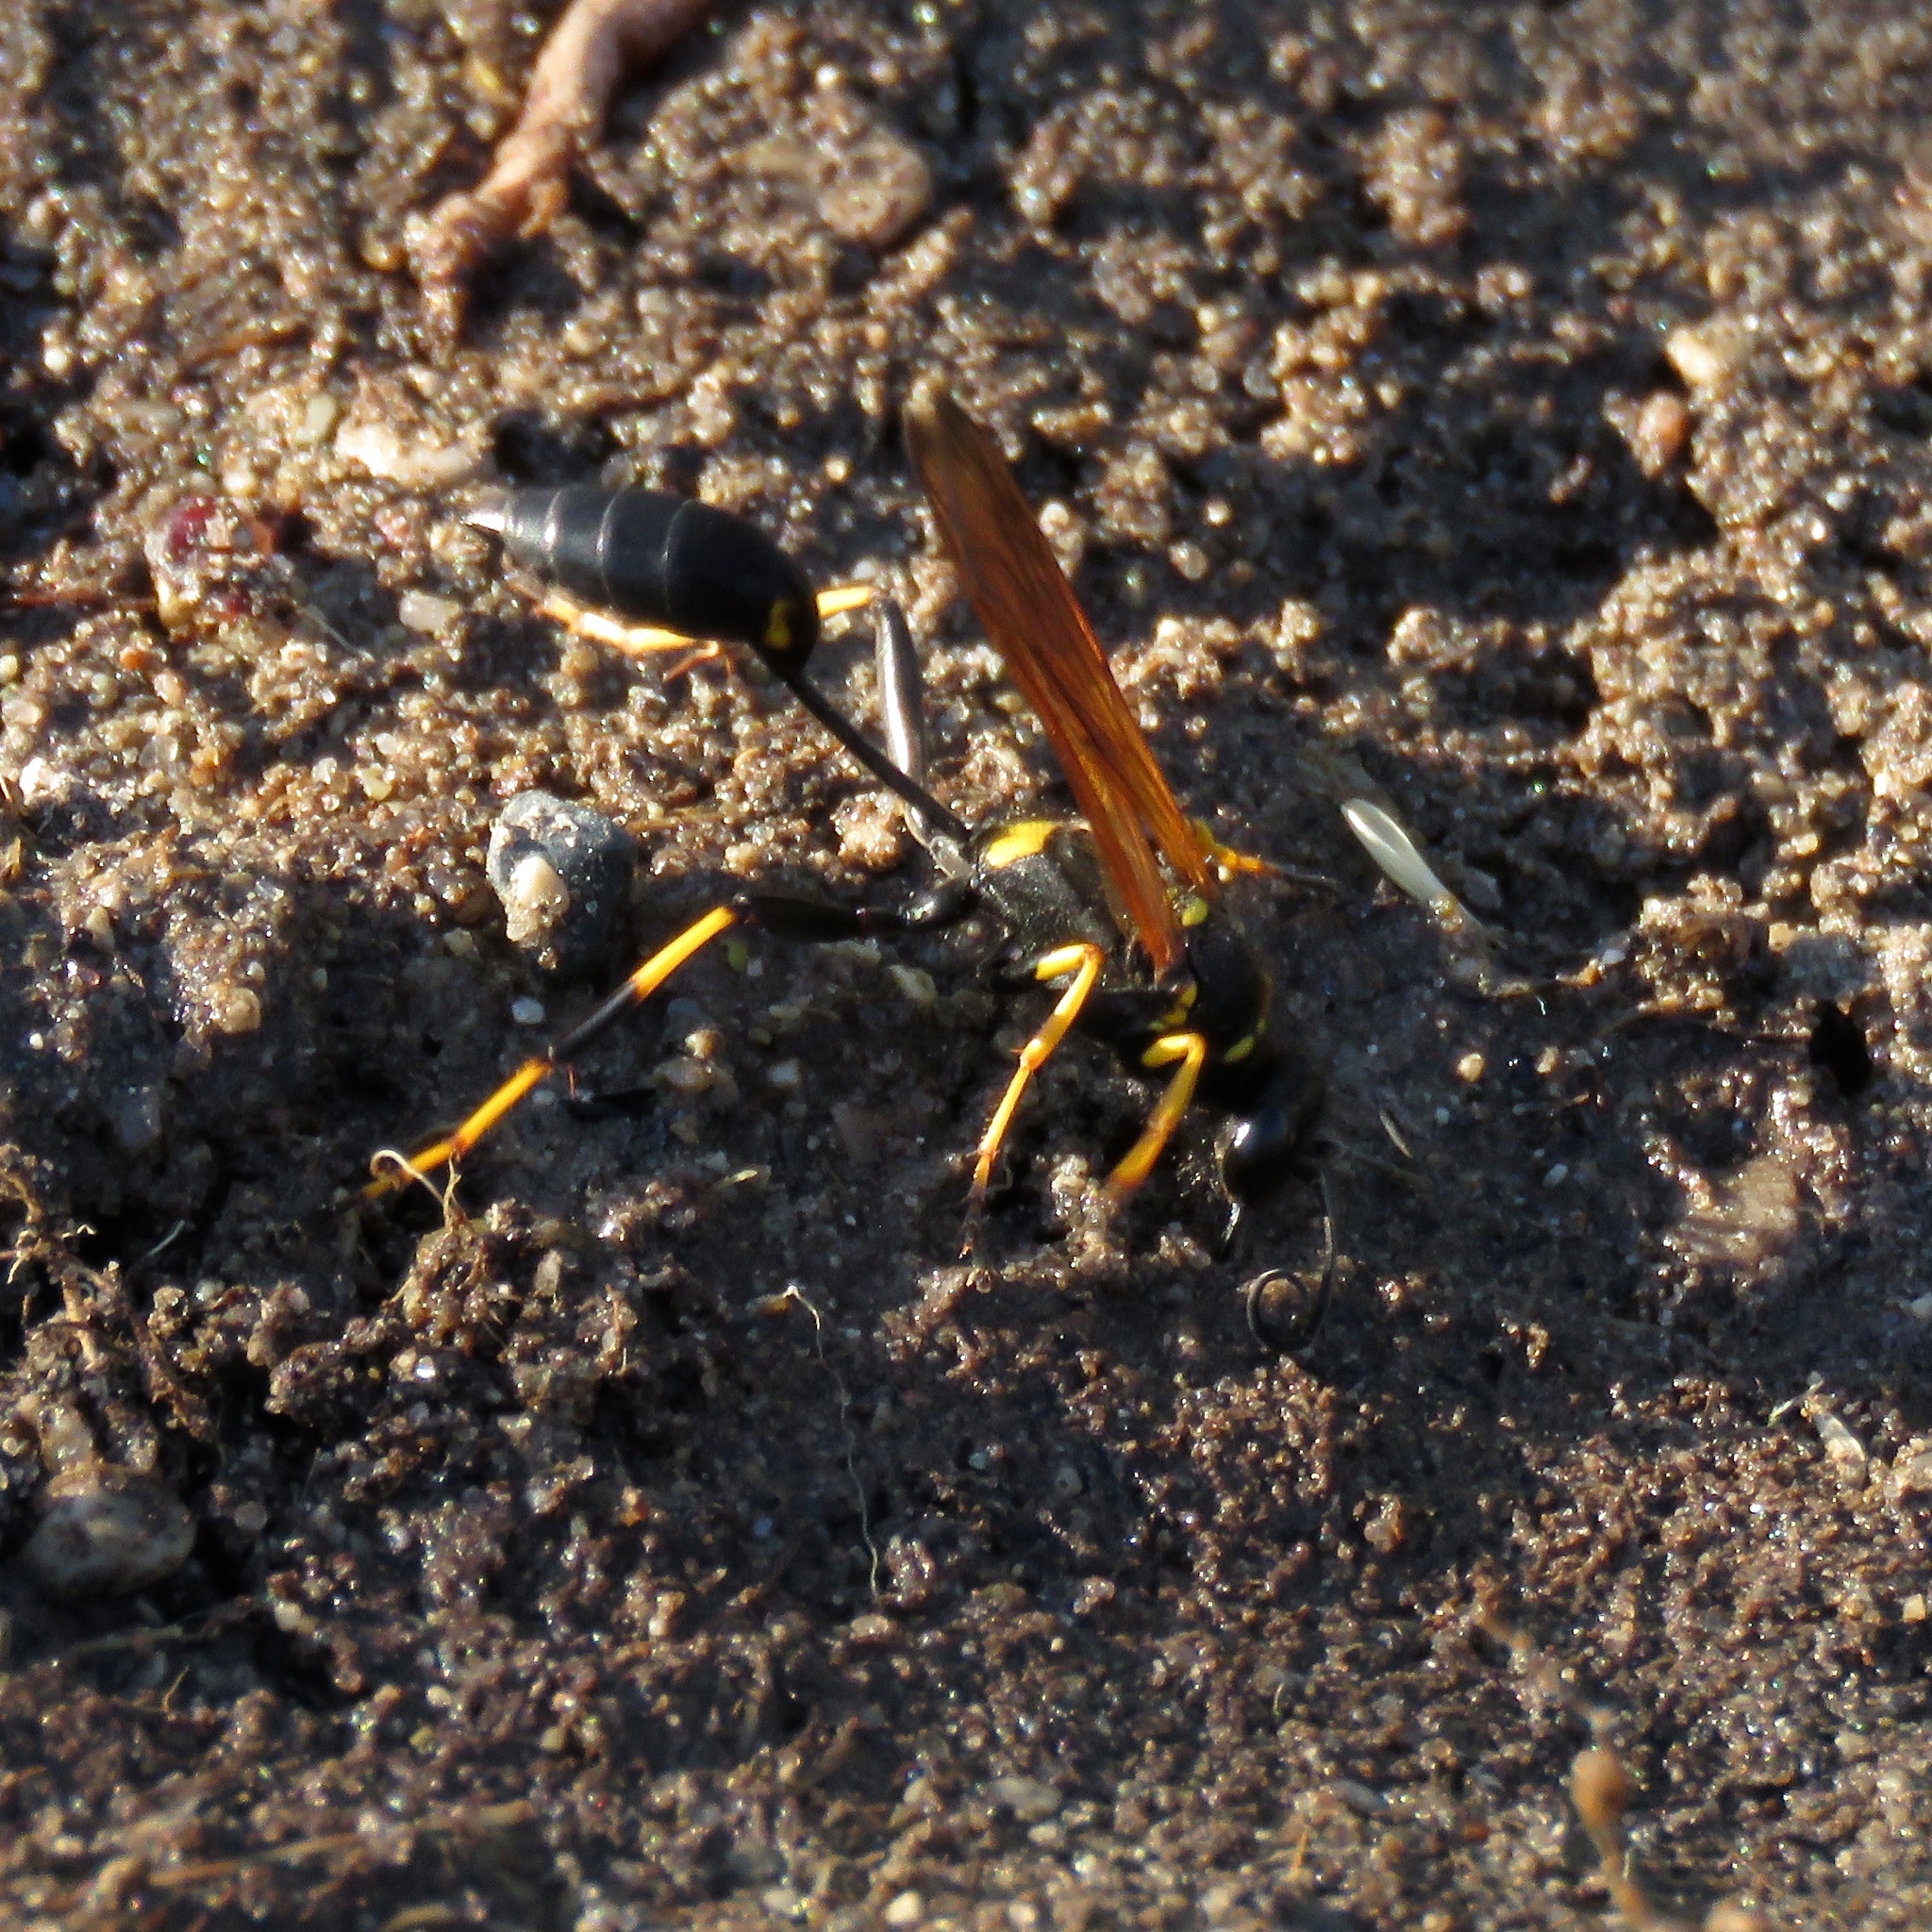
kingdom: Animalia
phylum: Arthropoda
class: Insecta
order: Hymenoptera
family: Sphecidae
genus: Sceliphron
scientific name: Sceliphron caementarium
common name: Mud dauber
